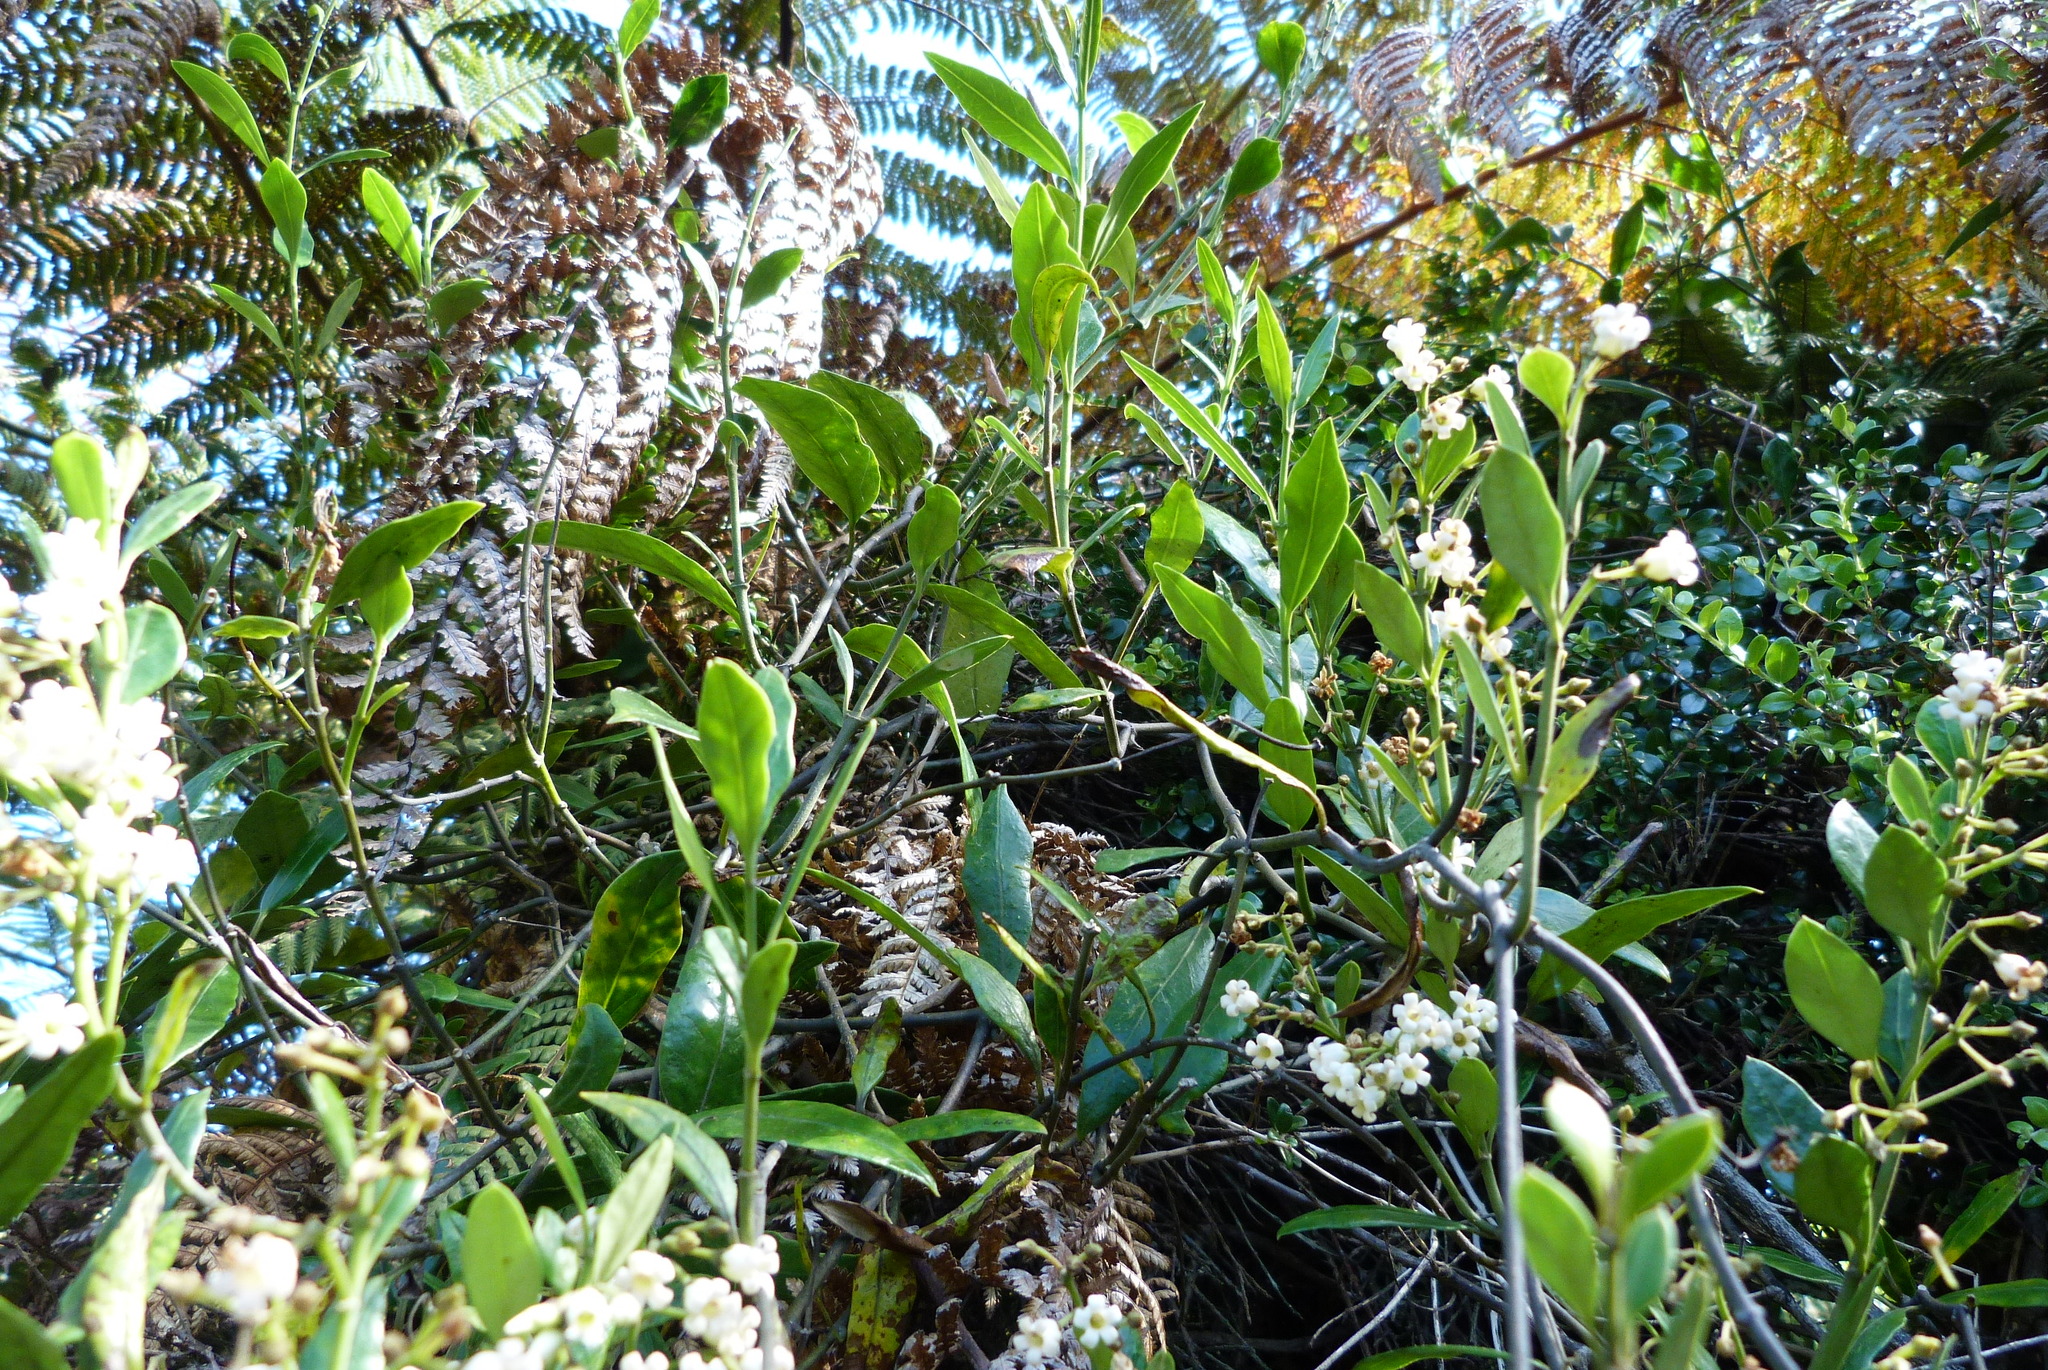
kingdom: Plantae
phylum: Tracheophyta
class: Magnoliopsida
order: Gentianales
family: Apocynaceae
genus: Parsonsia
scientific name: Parsonsia heterophylla
